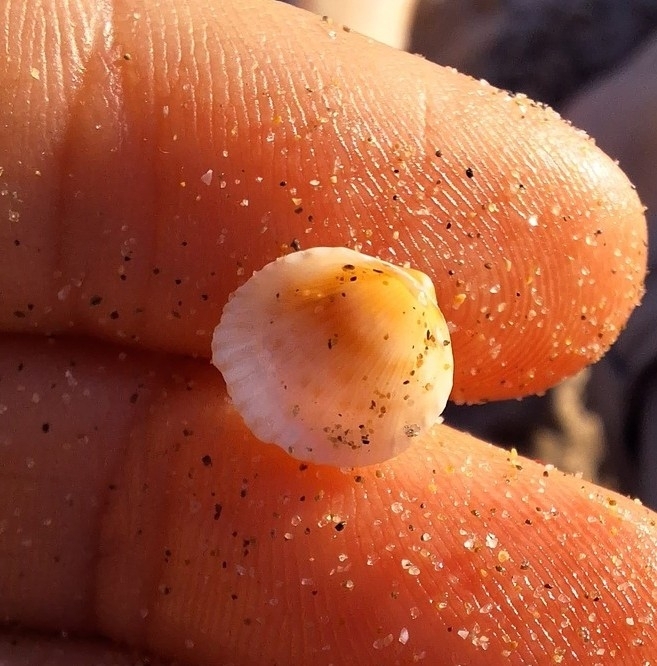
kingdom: Animalia
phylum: Mollusca
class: Bivalvia
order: Cardiida
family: Cardiidae
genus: Papillicardium
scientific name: Papillicardium papillosum
